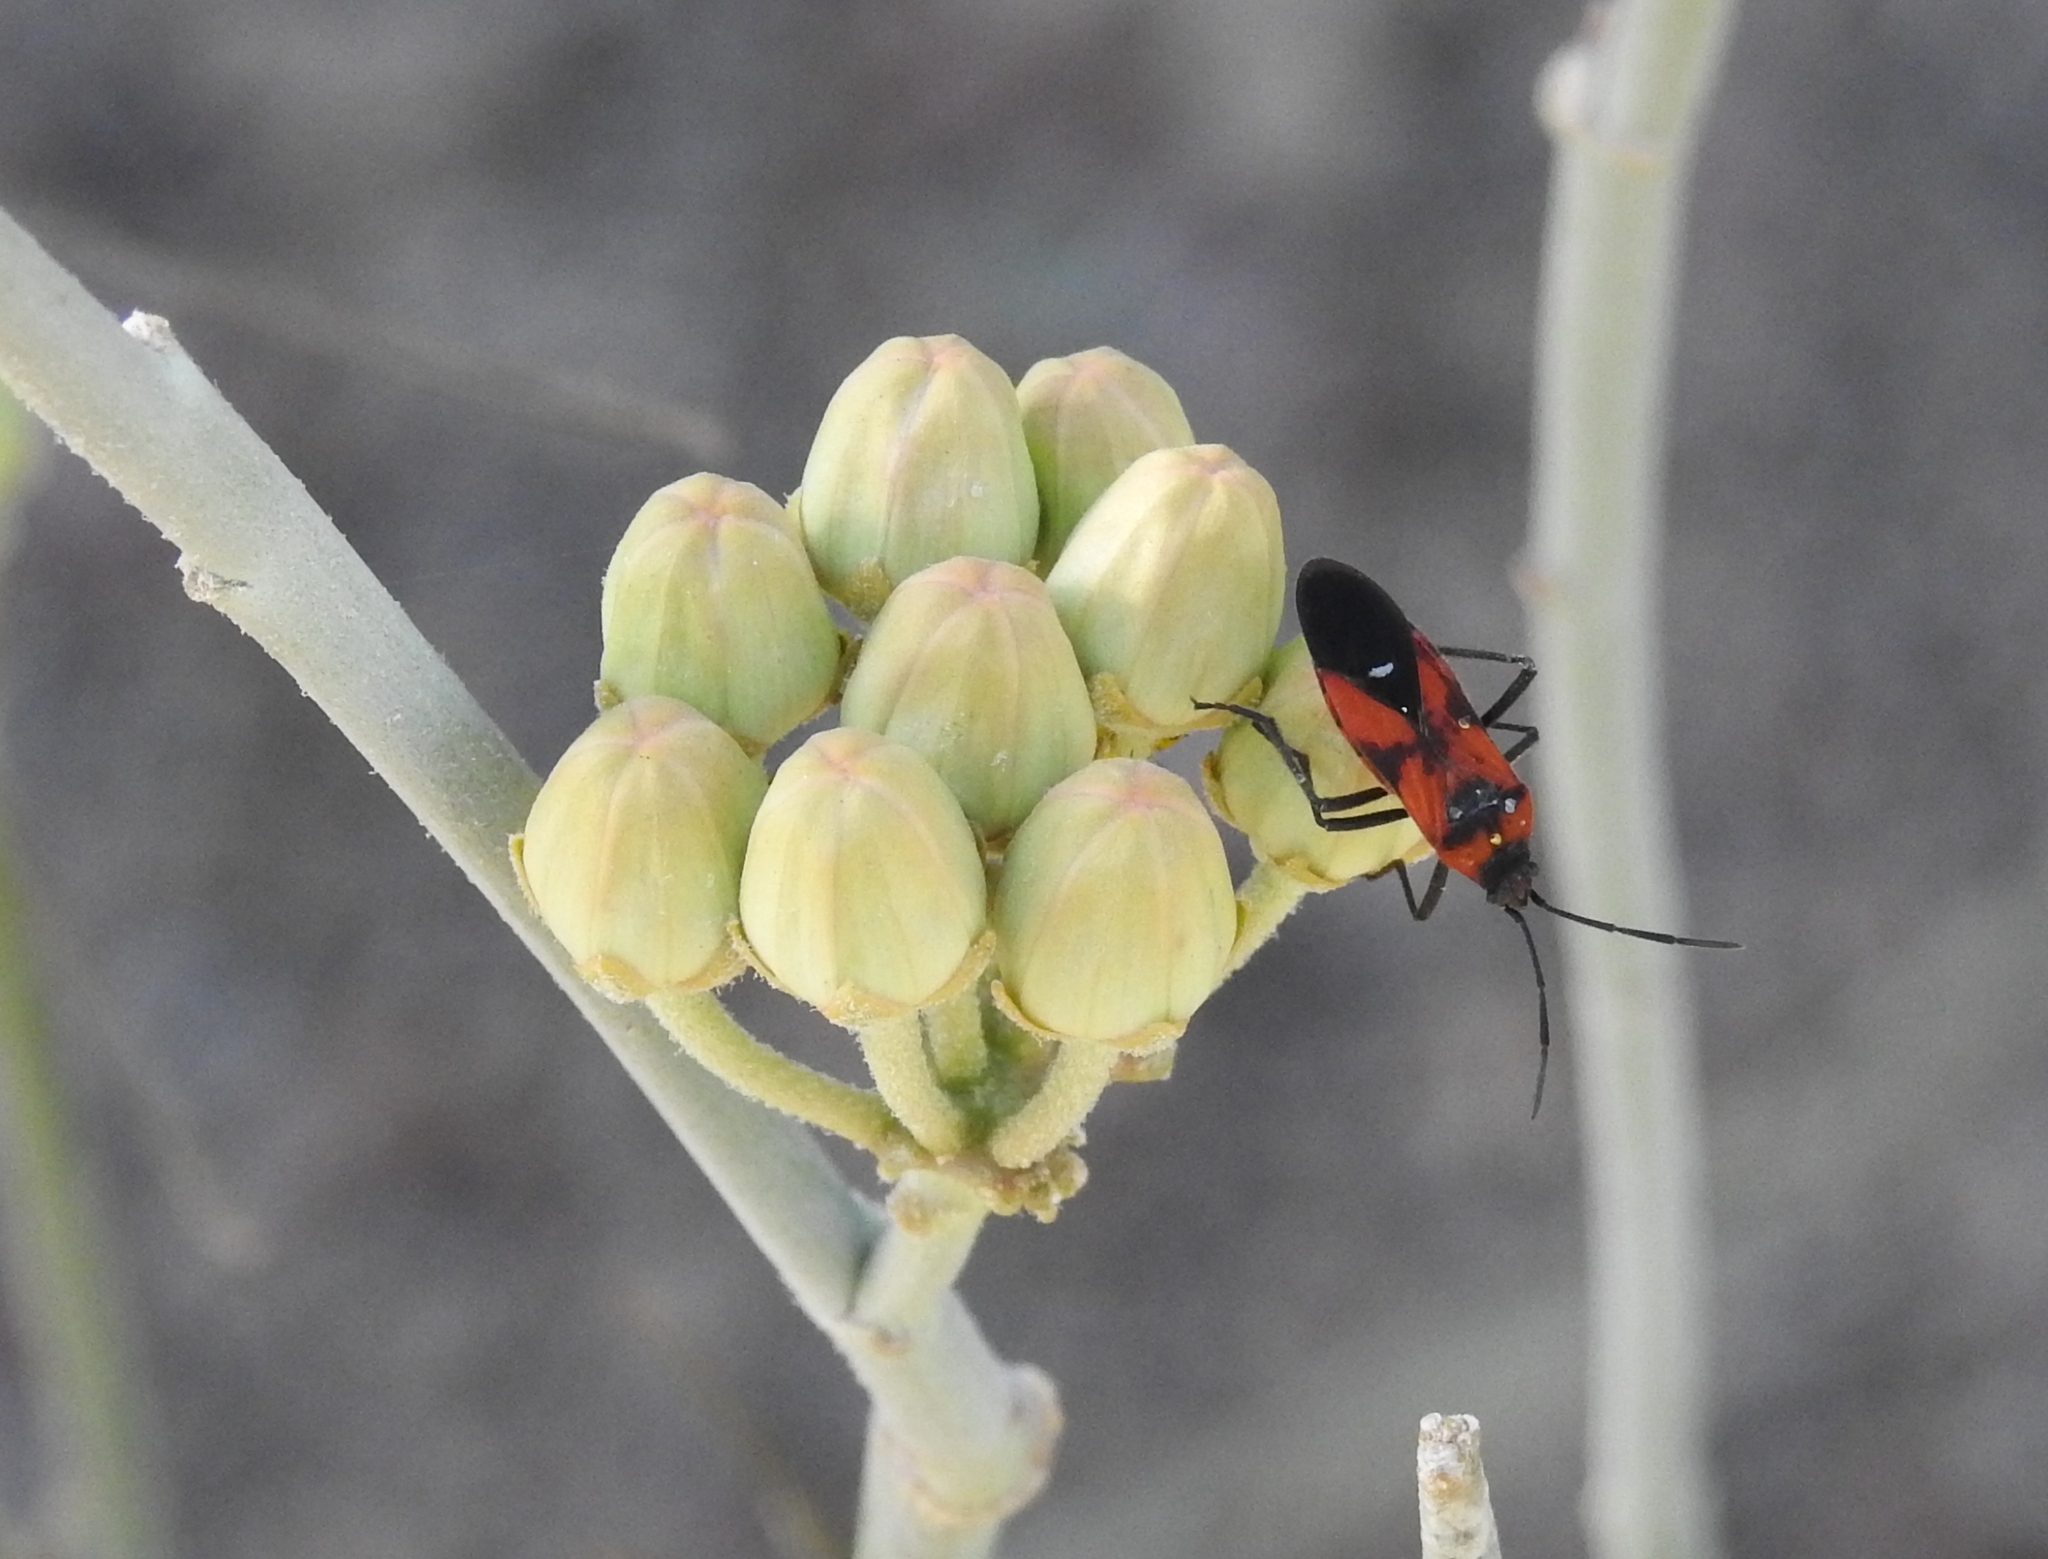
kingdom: Animalia
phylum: Arthropoda
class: Insecta
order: Hemiptera
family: Lygaeidae
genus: Oncopeltus
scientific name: Oncopeltus sanguinolentus
